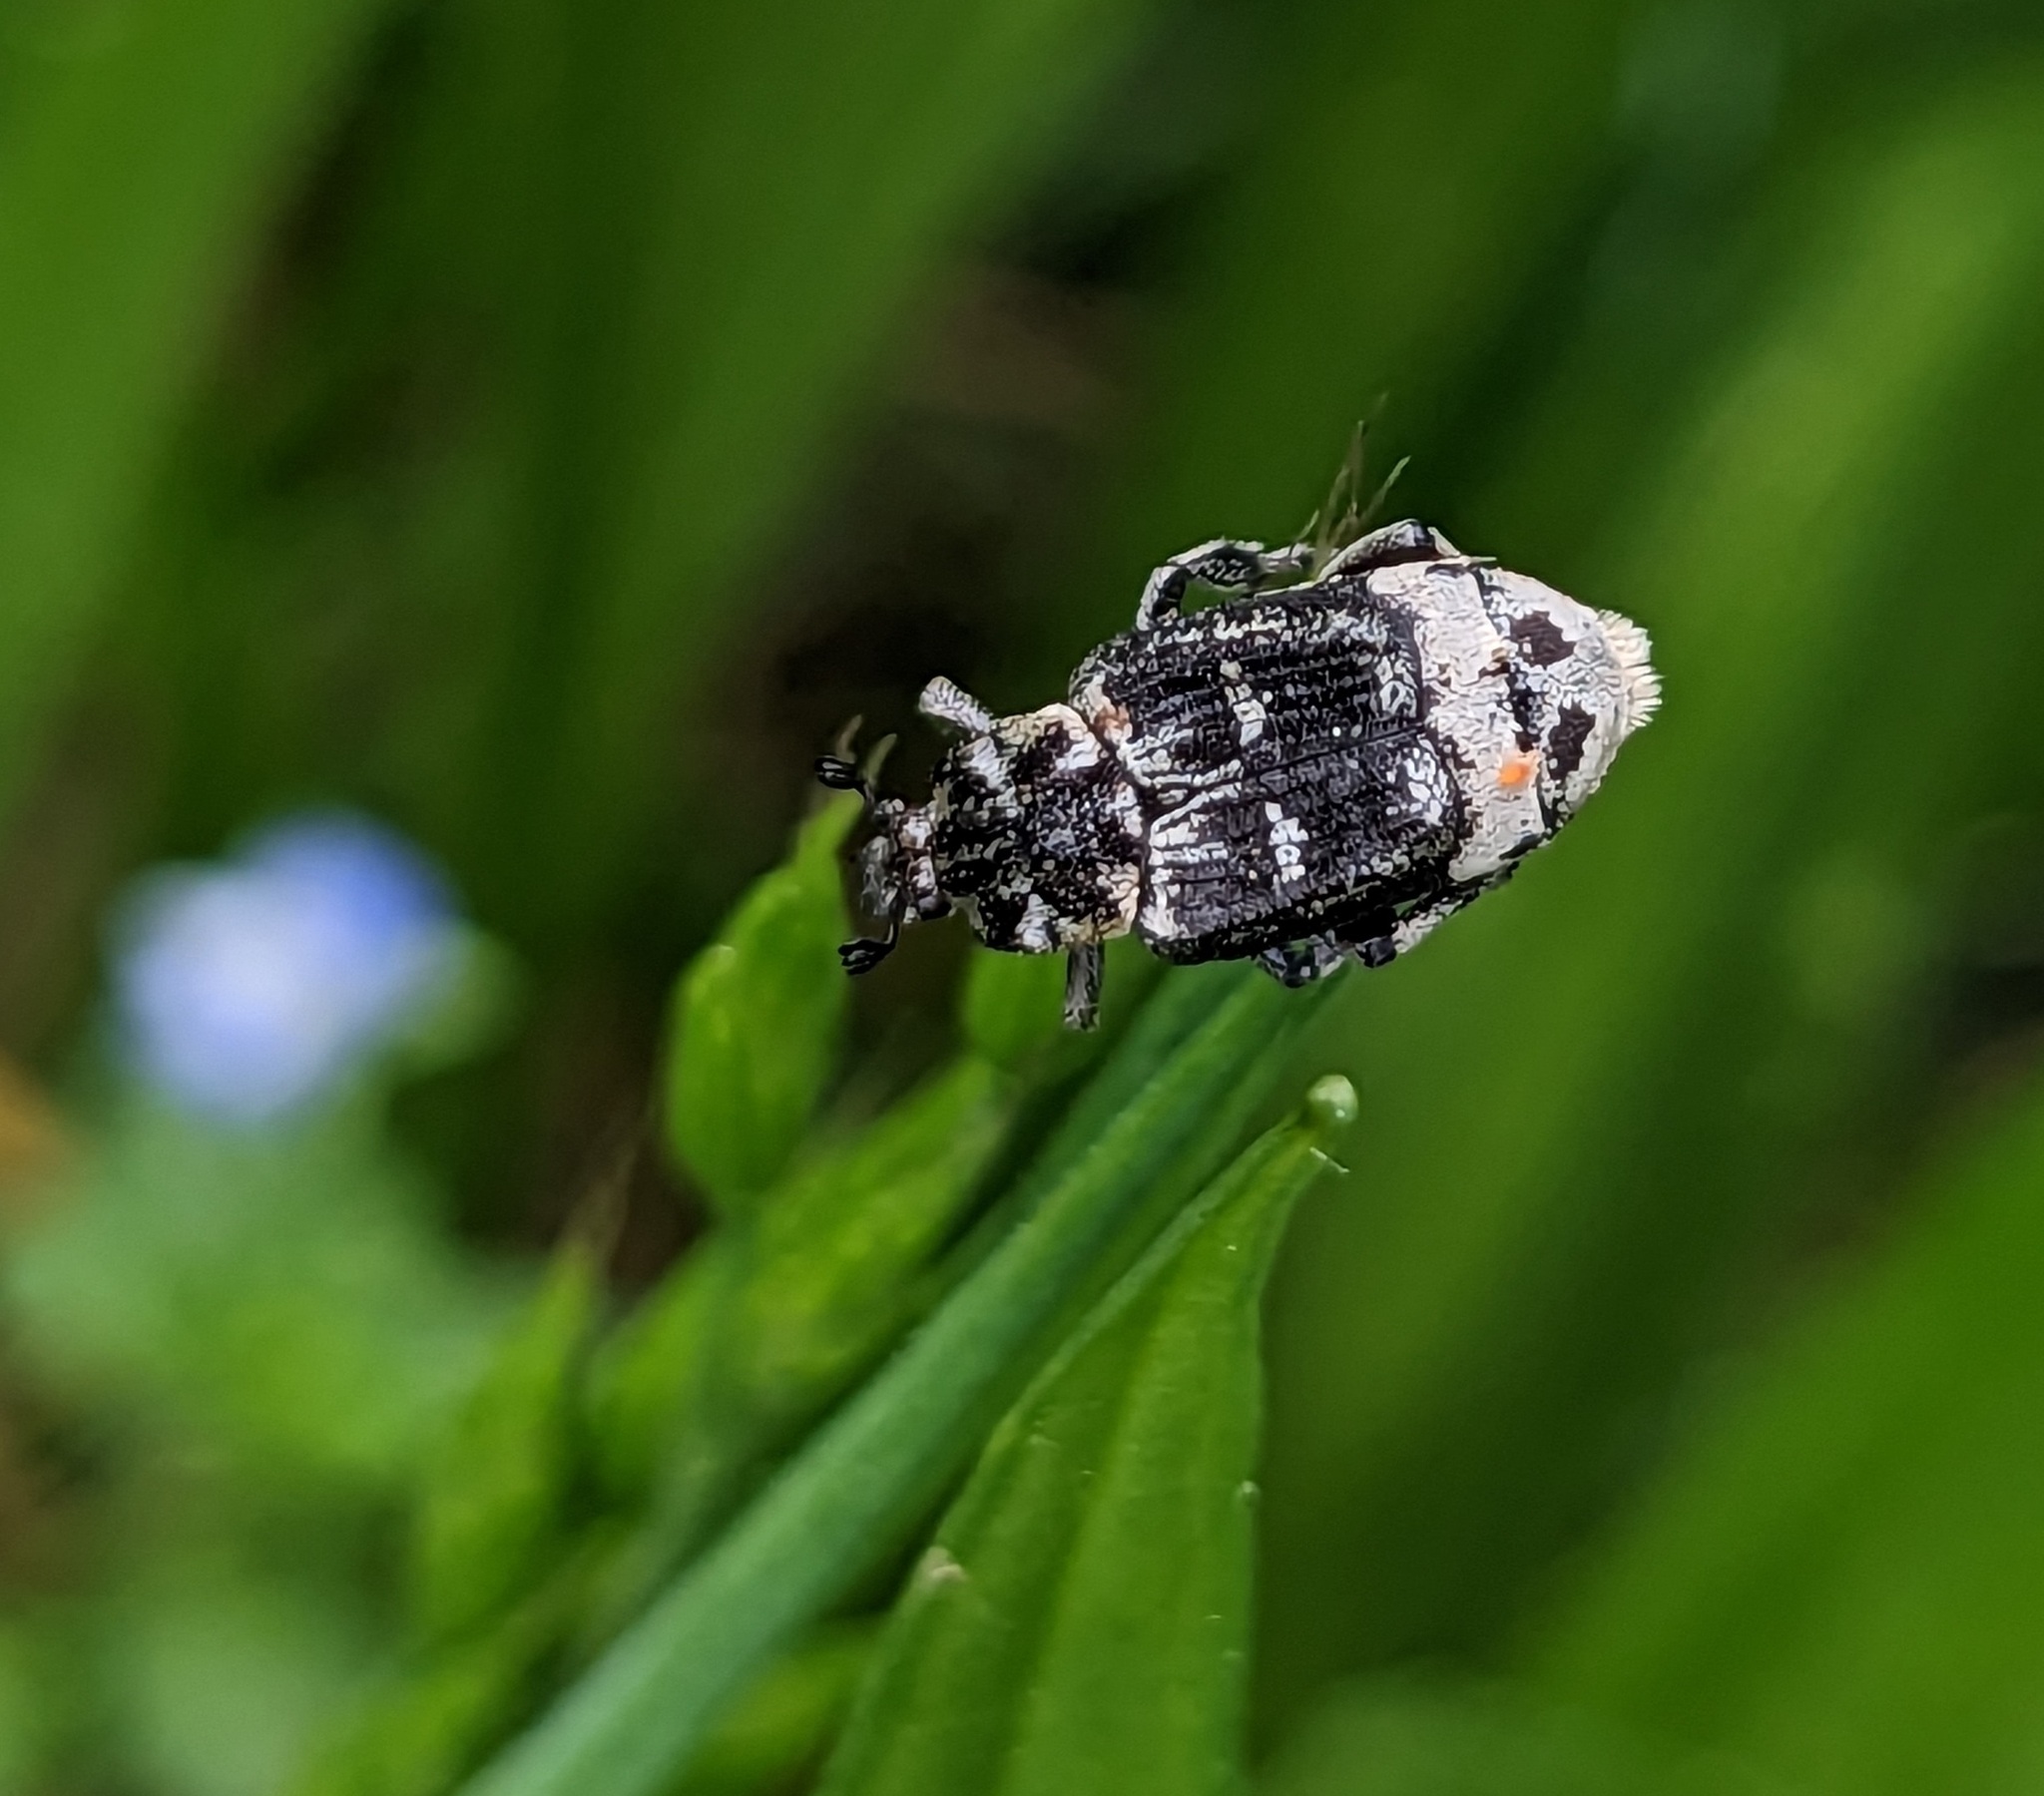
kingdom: Animalia
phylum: Arthropoda
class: Insecta
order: Coleoptera
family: Scarabaeidae
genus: Valgus
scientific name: Valgus hemipterus
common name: Bug flower chafer
